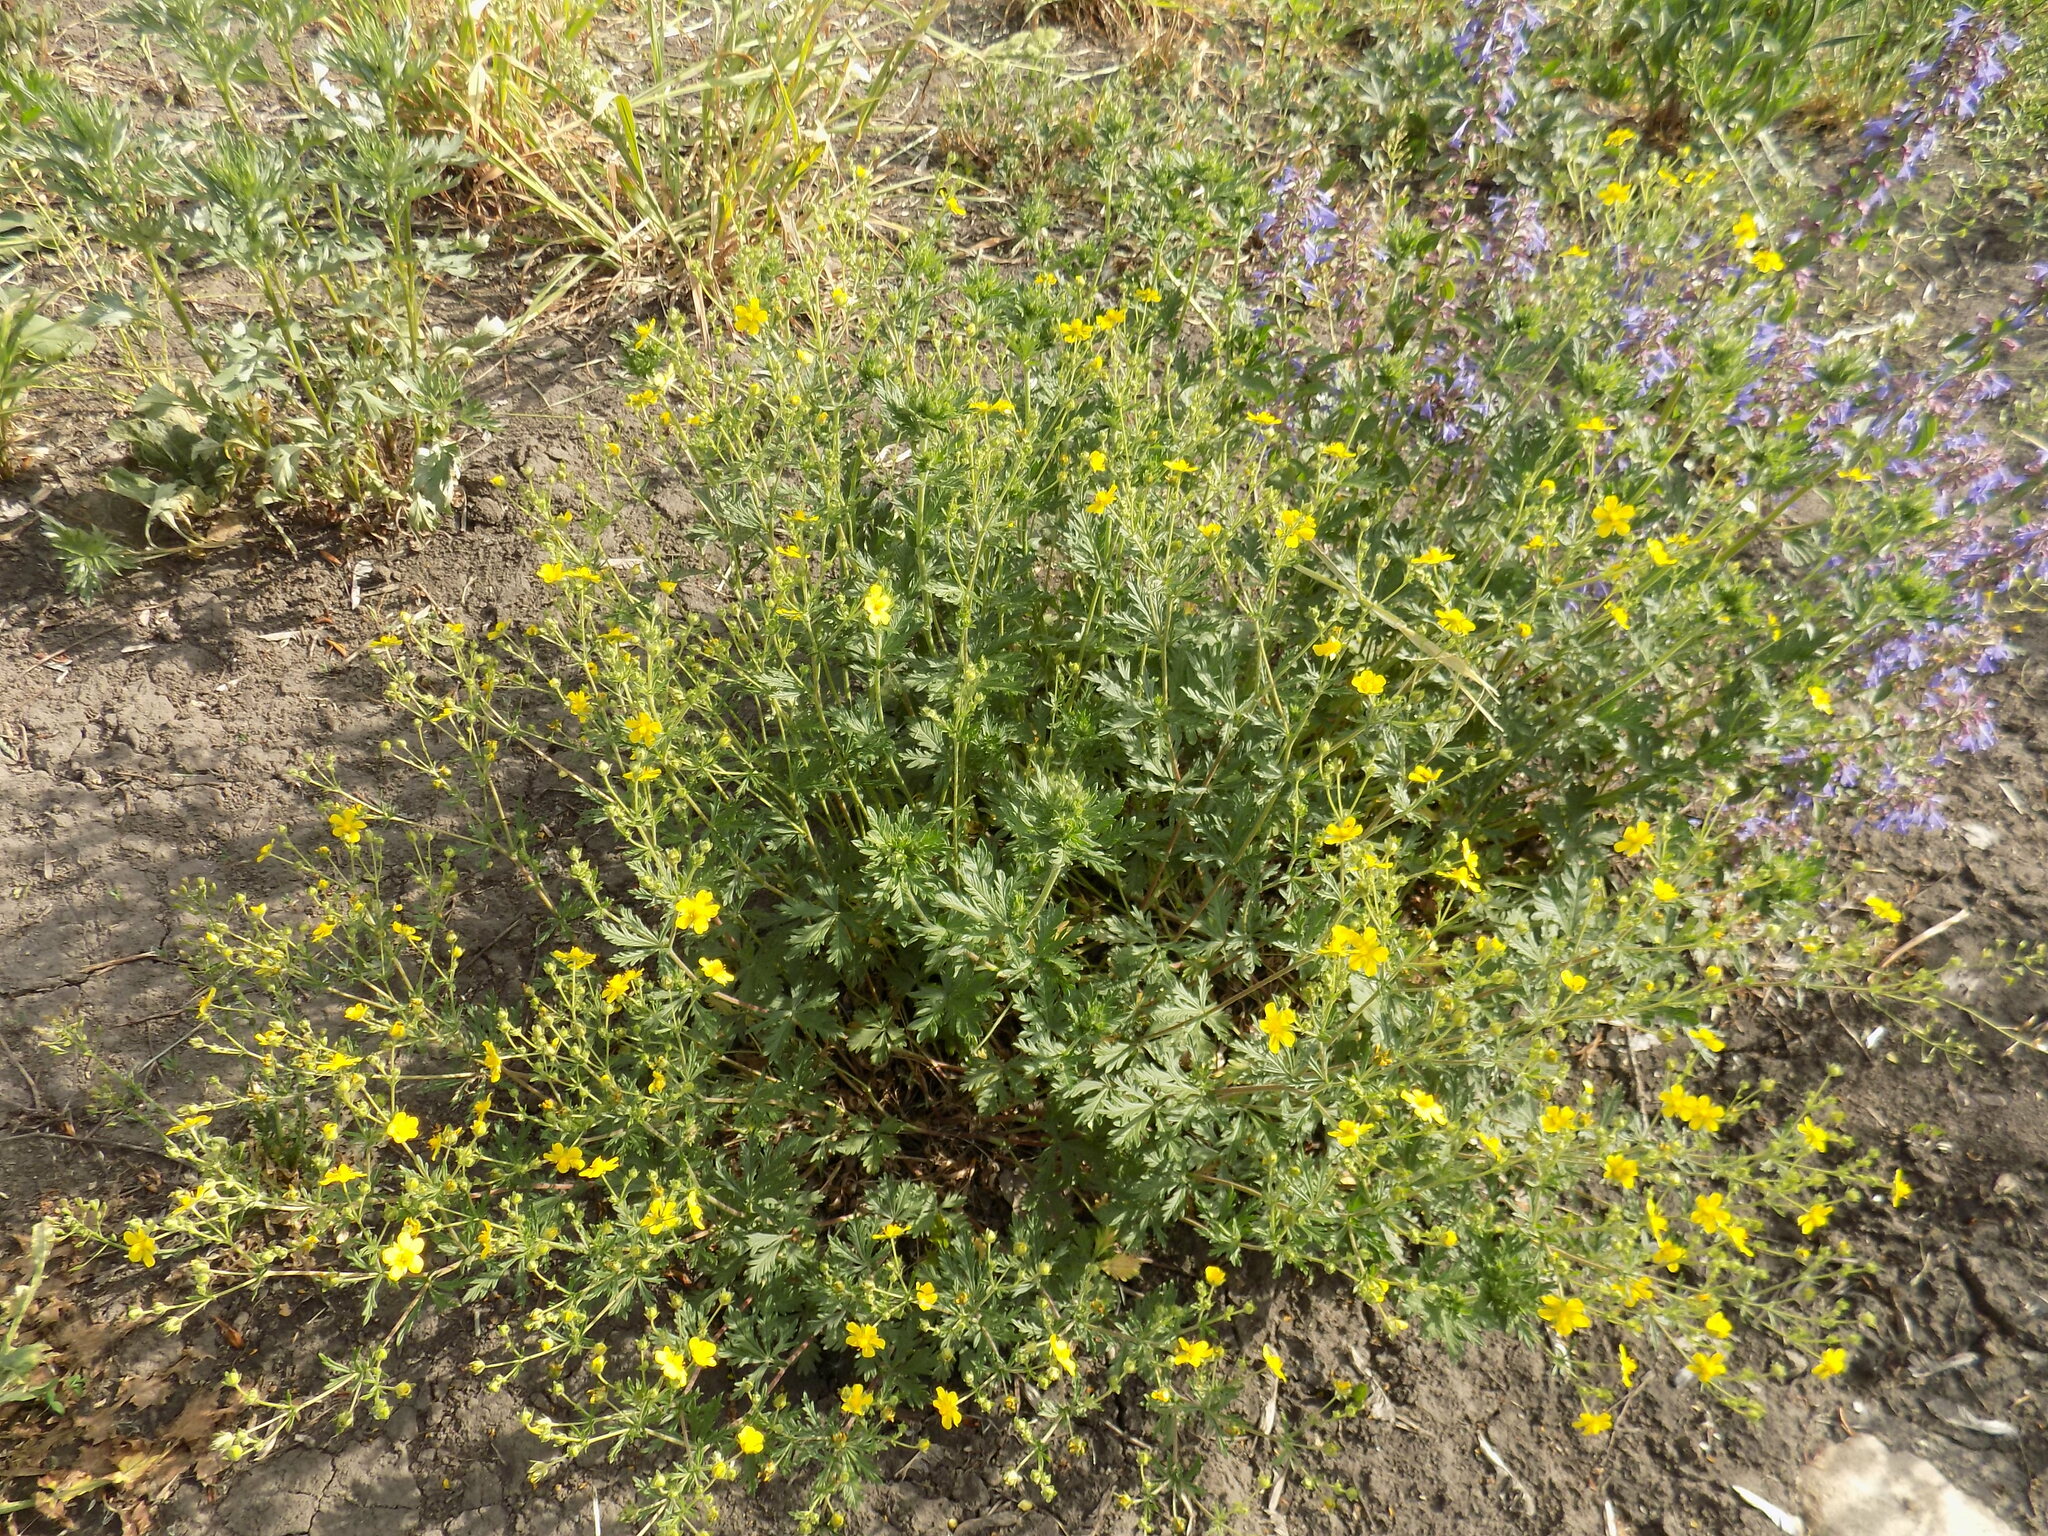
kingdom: Plantae
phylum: Tracheophyta
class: Magnoliopsida
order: Rosales
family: Rosaceae
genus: Potentilla
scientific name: Potentilla argentea
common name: Hoary cinquefoil
